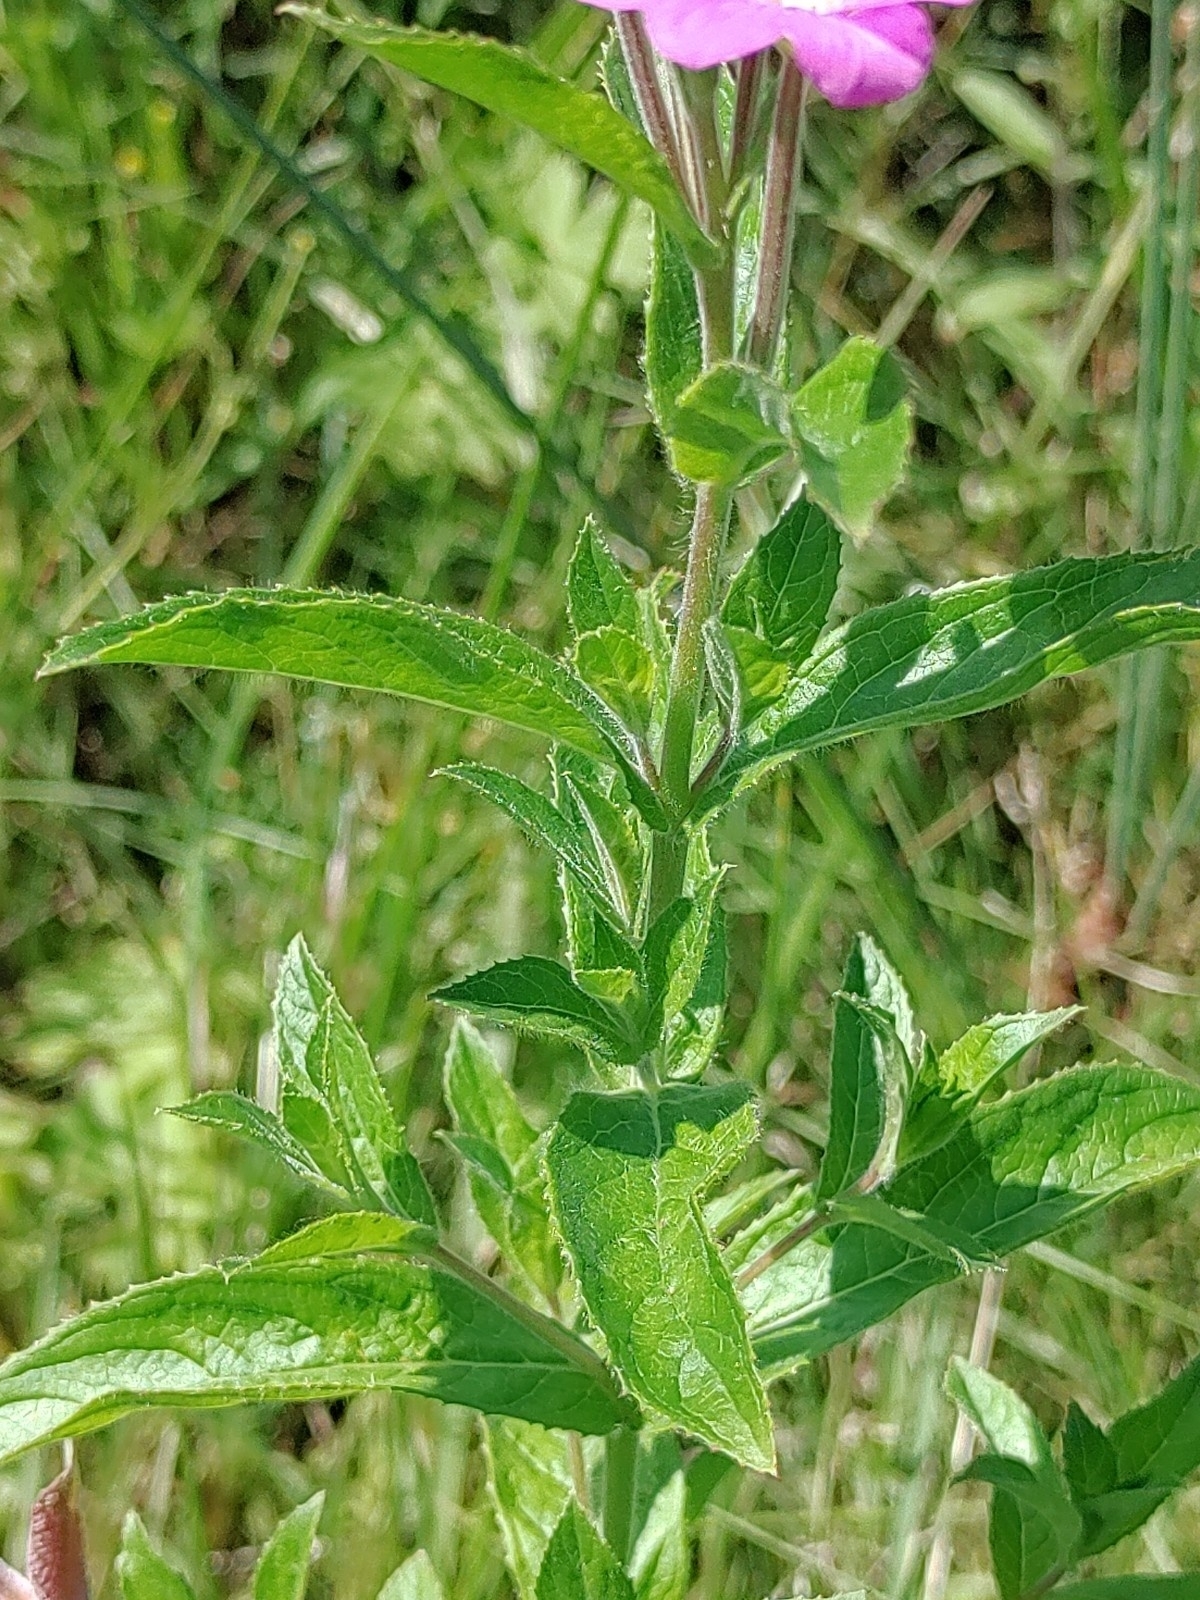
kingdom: Plantae
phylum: Tracheophyta
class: Magnoliopsida
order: Myrtales
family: Onagraceae
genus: Epilobium
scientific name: Epilobium hirsutum
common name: Great willowherb
